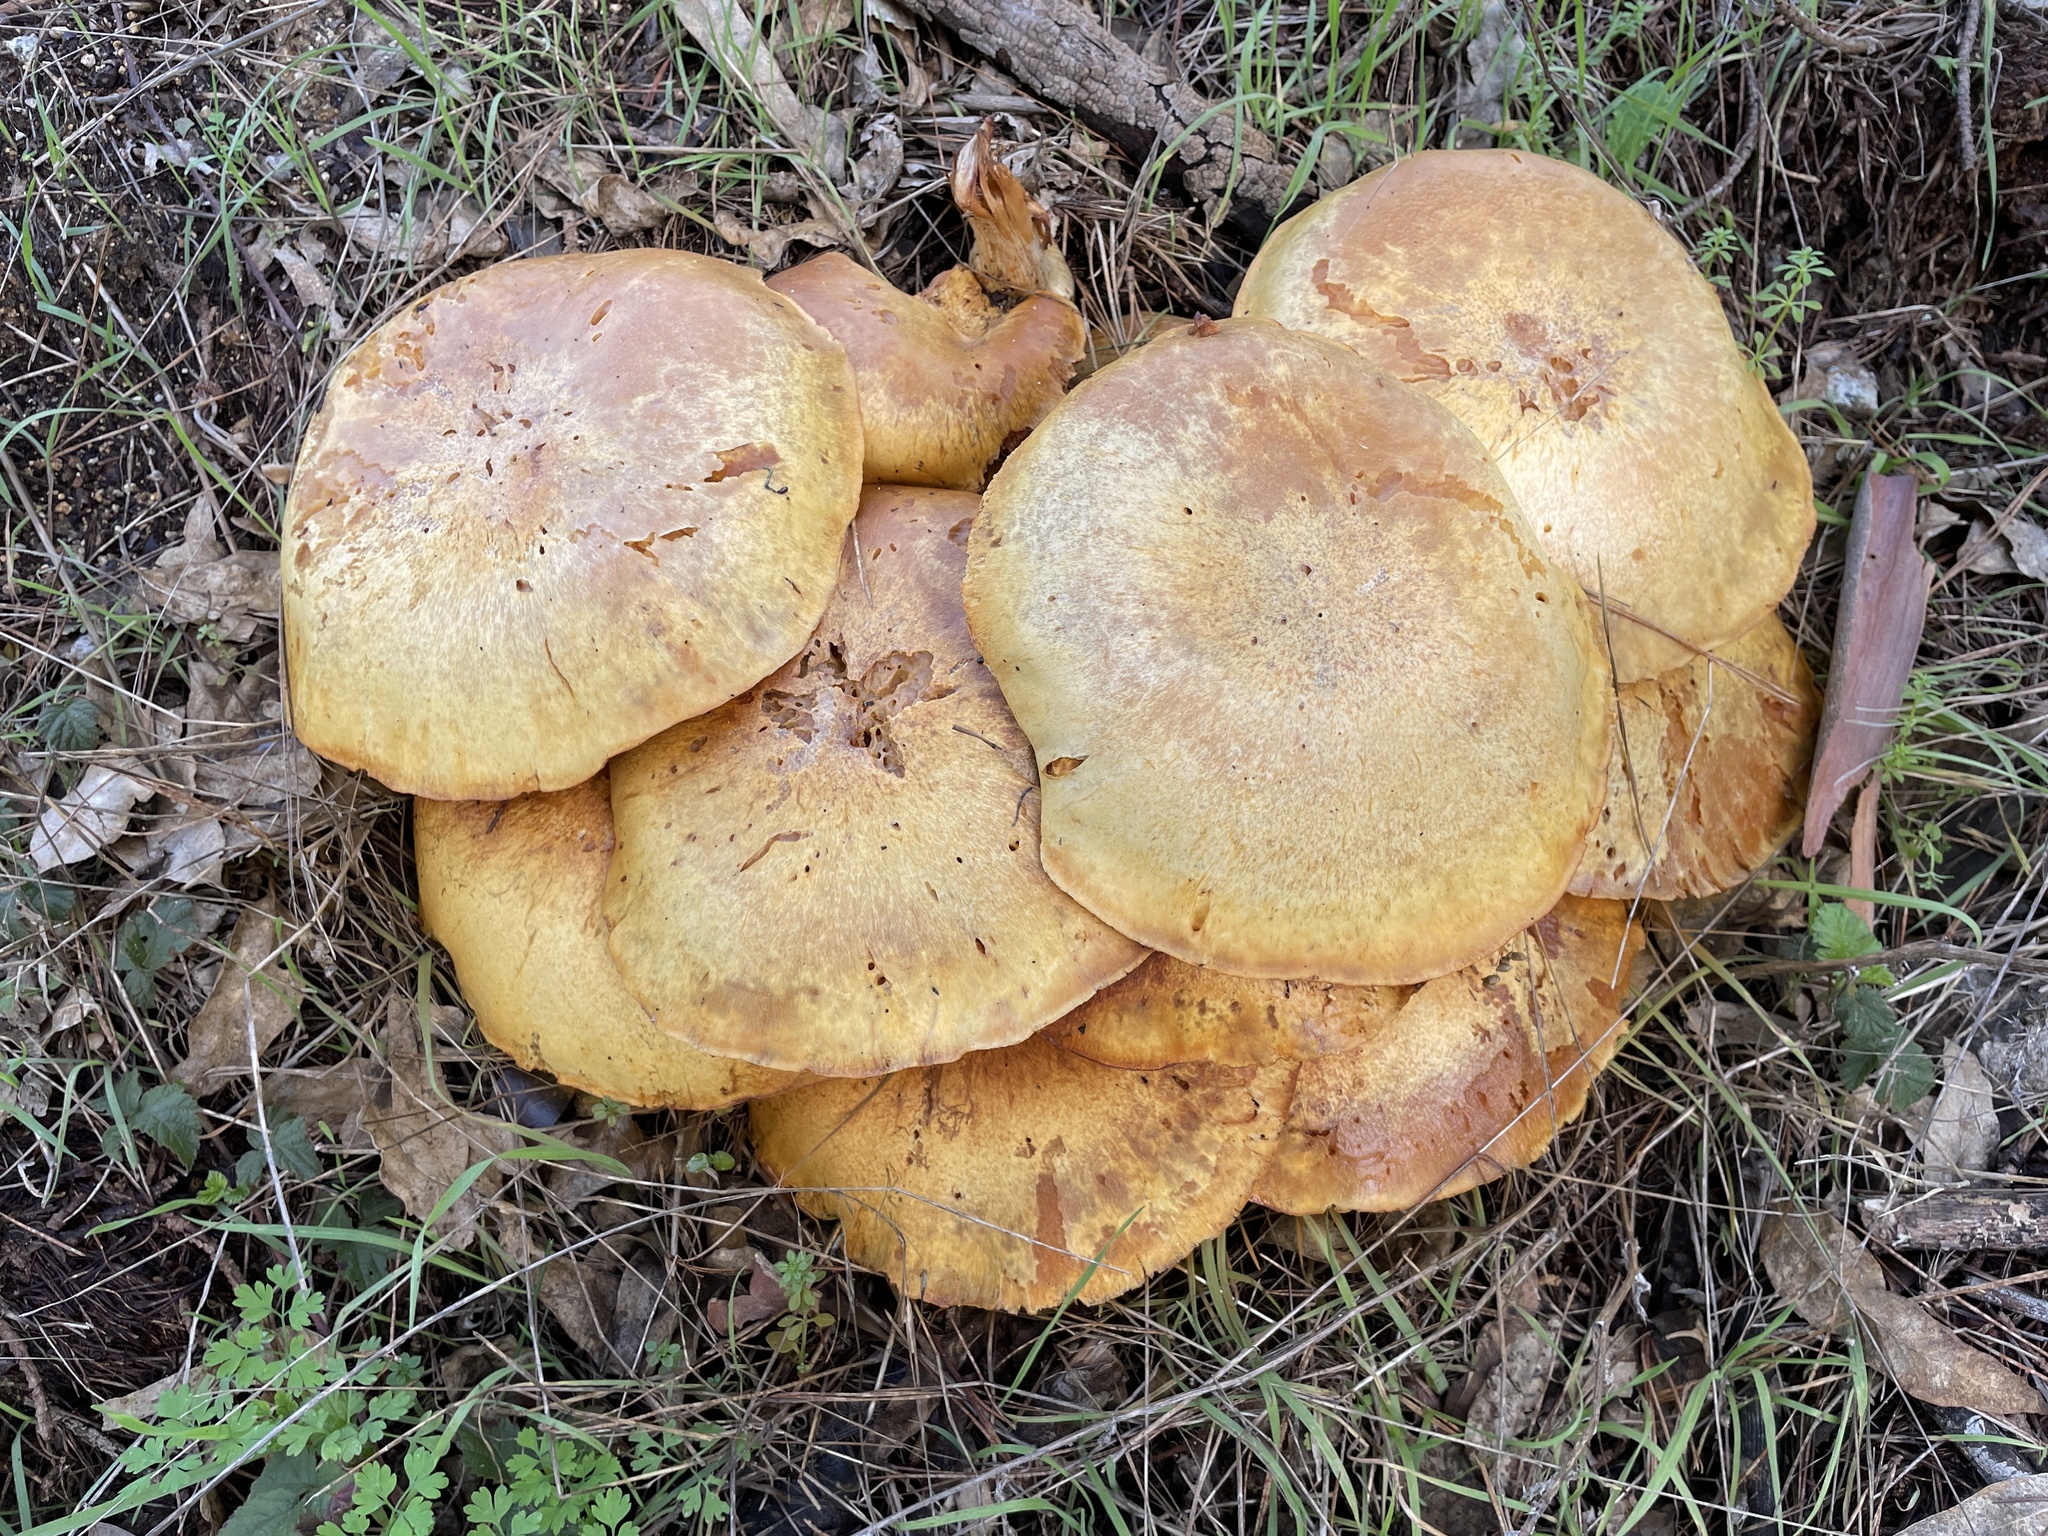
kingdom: Fungi
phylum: Basidiomycota
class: Agaricomycetes
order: Agaricales
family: Hymenogastraceae
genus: Gymnopilus
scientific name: Gymnopilus ventricosus
